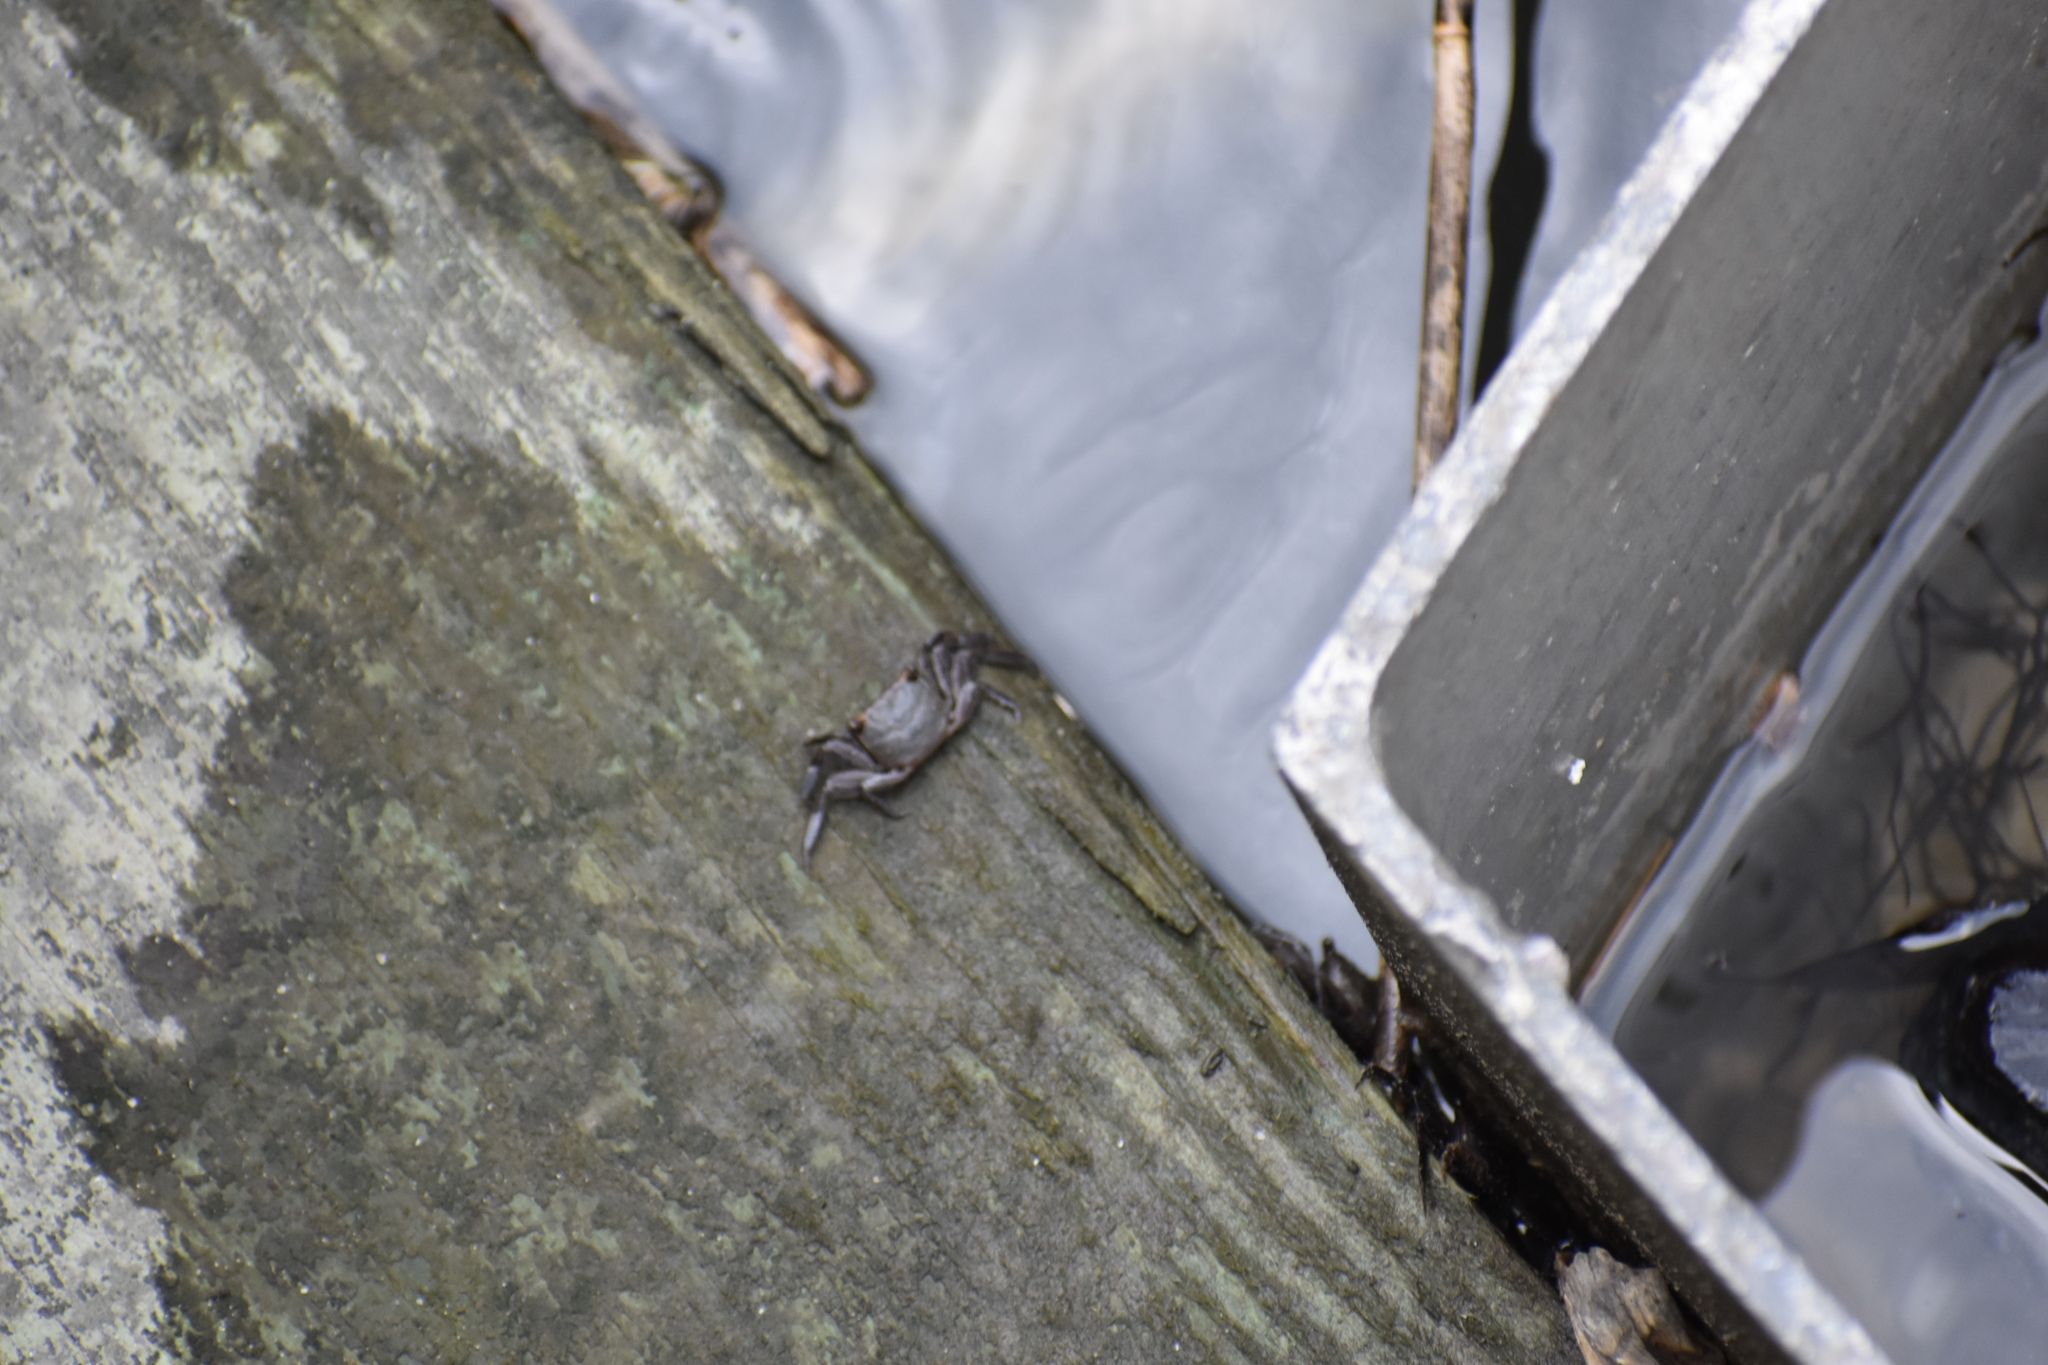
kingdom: Animalia
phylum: Arthropoda
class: Malacostraca
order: Decapoda
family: Sesarmidae
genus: Armases
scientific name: Armases cinereum
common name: Squareback marsh crab
